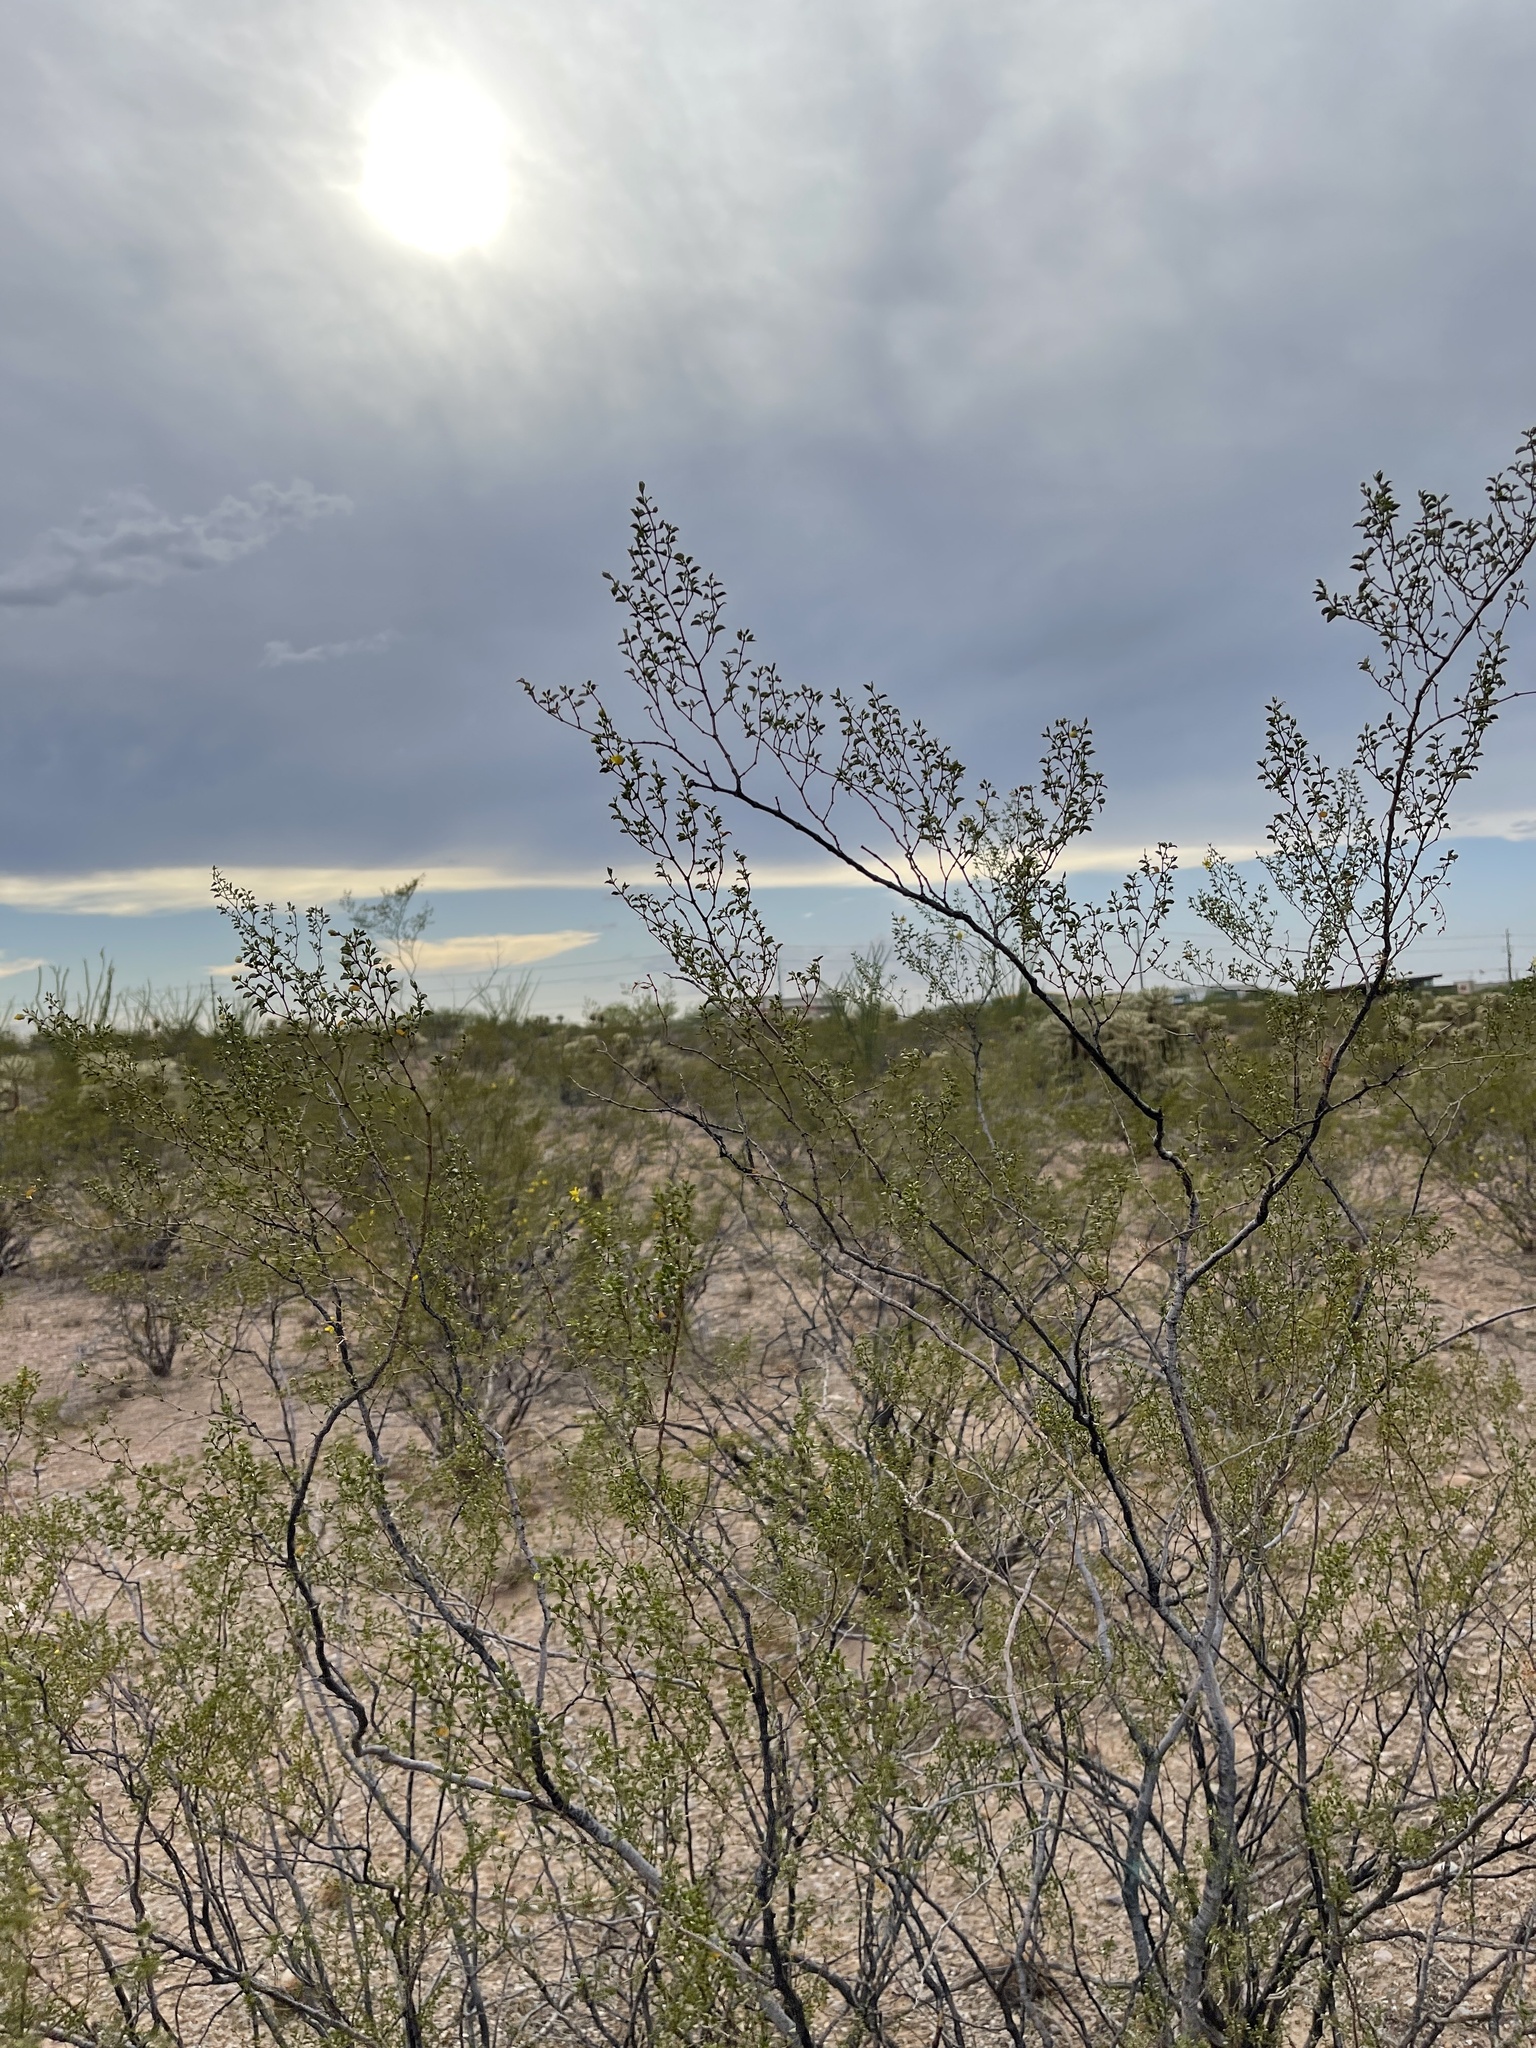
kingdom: Plantae
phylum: Tracheophyta
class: Magnoliopsida
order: Zygophyllales
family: Zygophyllaceae
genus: Larrea
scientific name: Larrea tridentata
